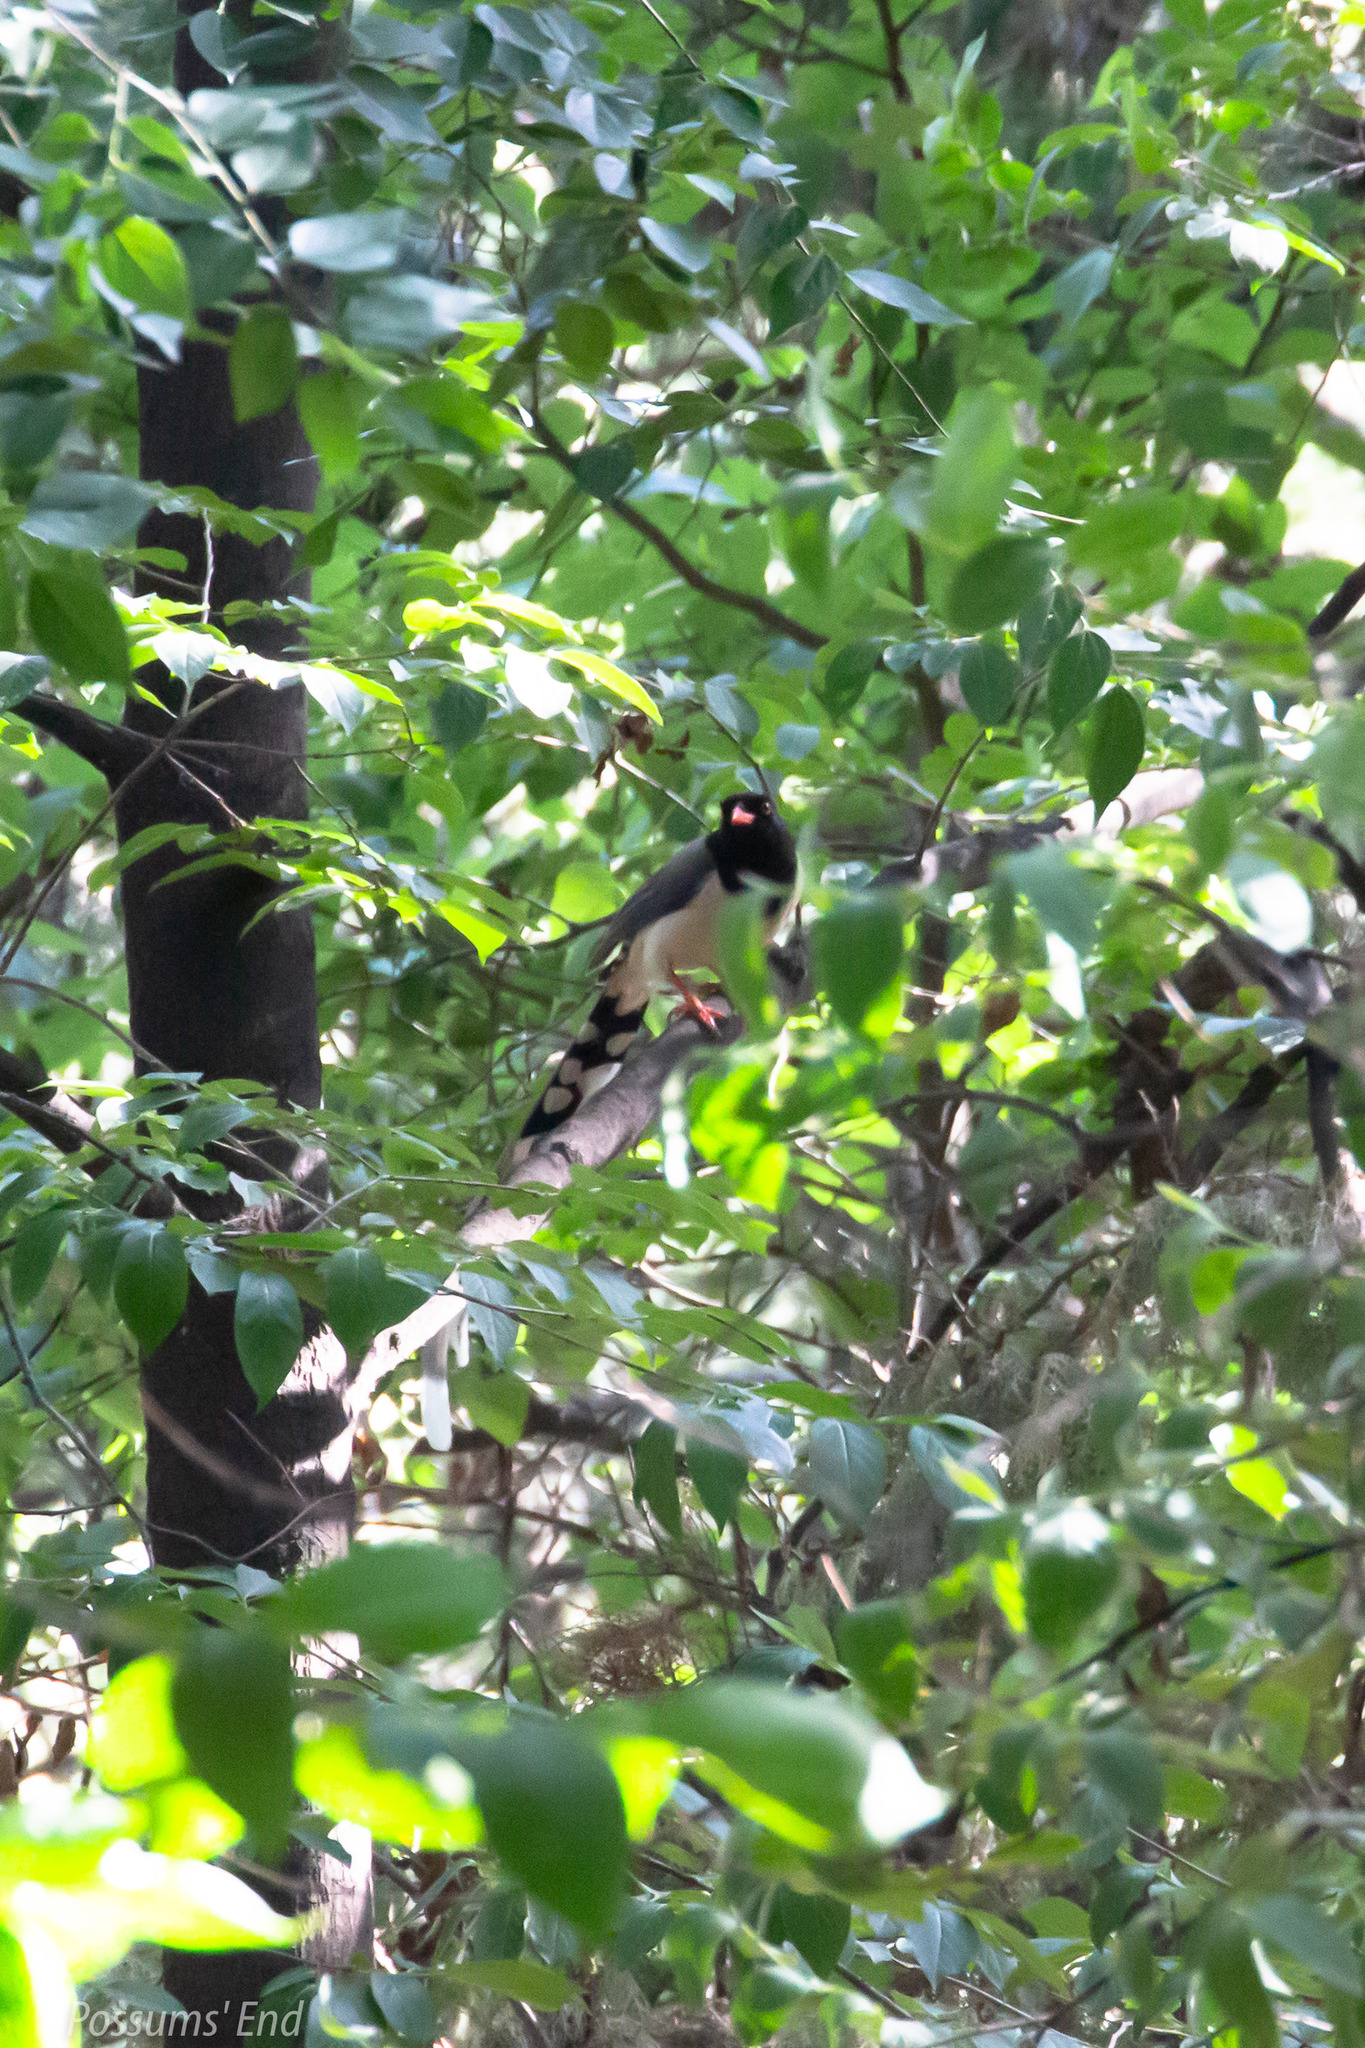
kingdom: Animalia
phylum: Chordata
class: Aves
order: Passeriformes
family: Corvidae
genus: Urocissa
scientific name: Urocissa erythroryncha
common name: Red-billed blue magpie
